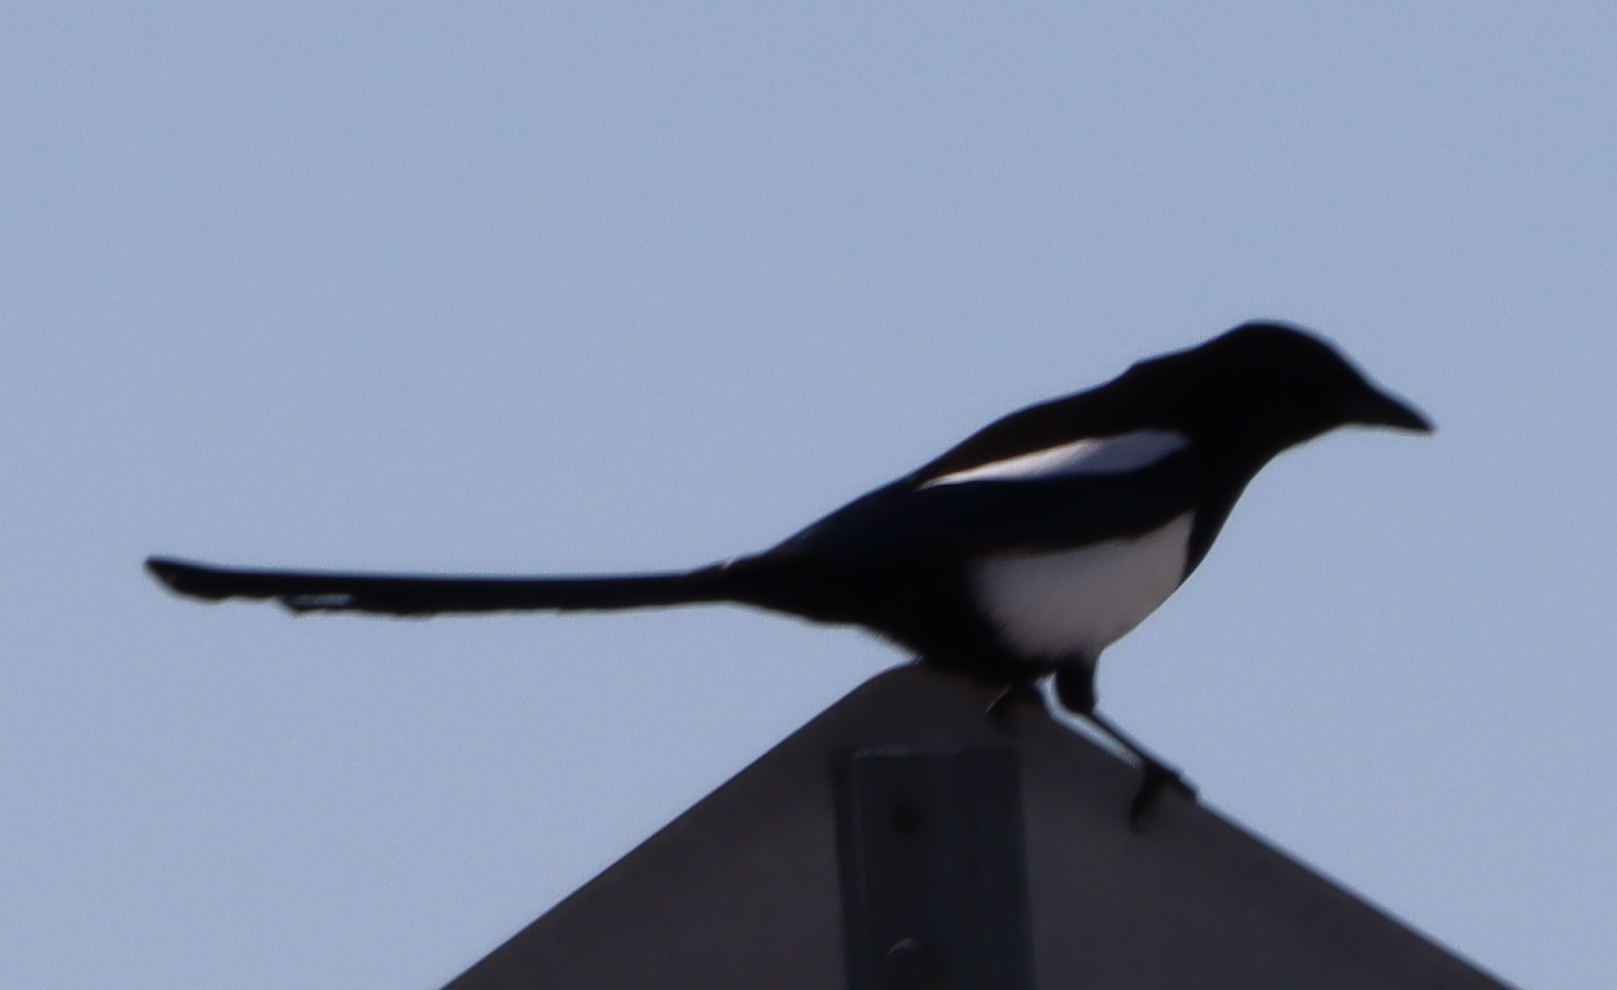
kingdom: Animalia
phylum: Chordata
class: Aves
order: Passeriformes
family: Corvidae
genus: Pica
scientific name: Pica hudsonia
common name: Black-billed magpie
